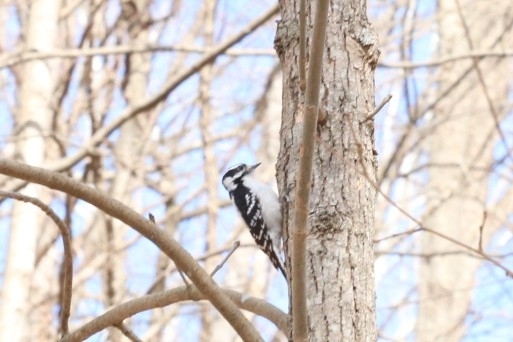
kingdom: Animalia
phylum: Chordata
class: Aves
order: Piciformes
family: Picidae
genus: Dryobates
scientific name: Dryobates pubescens
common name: Downy woodpecker
